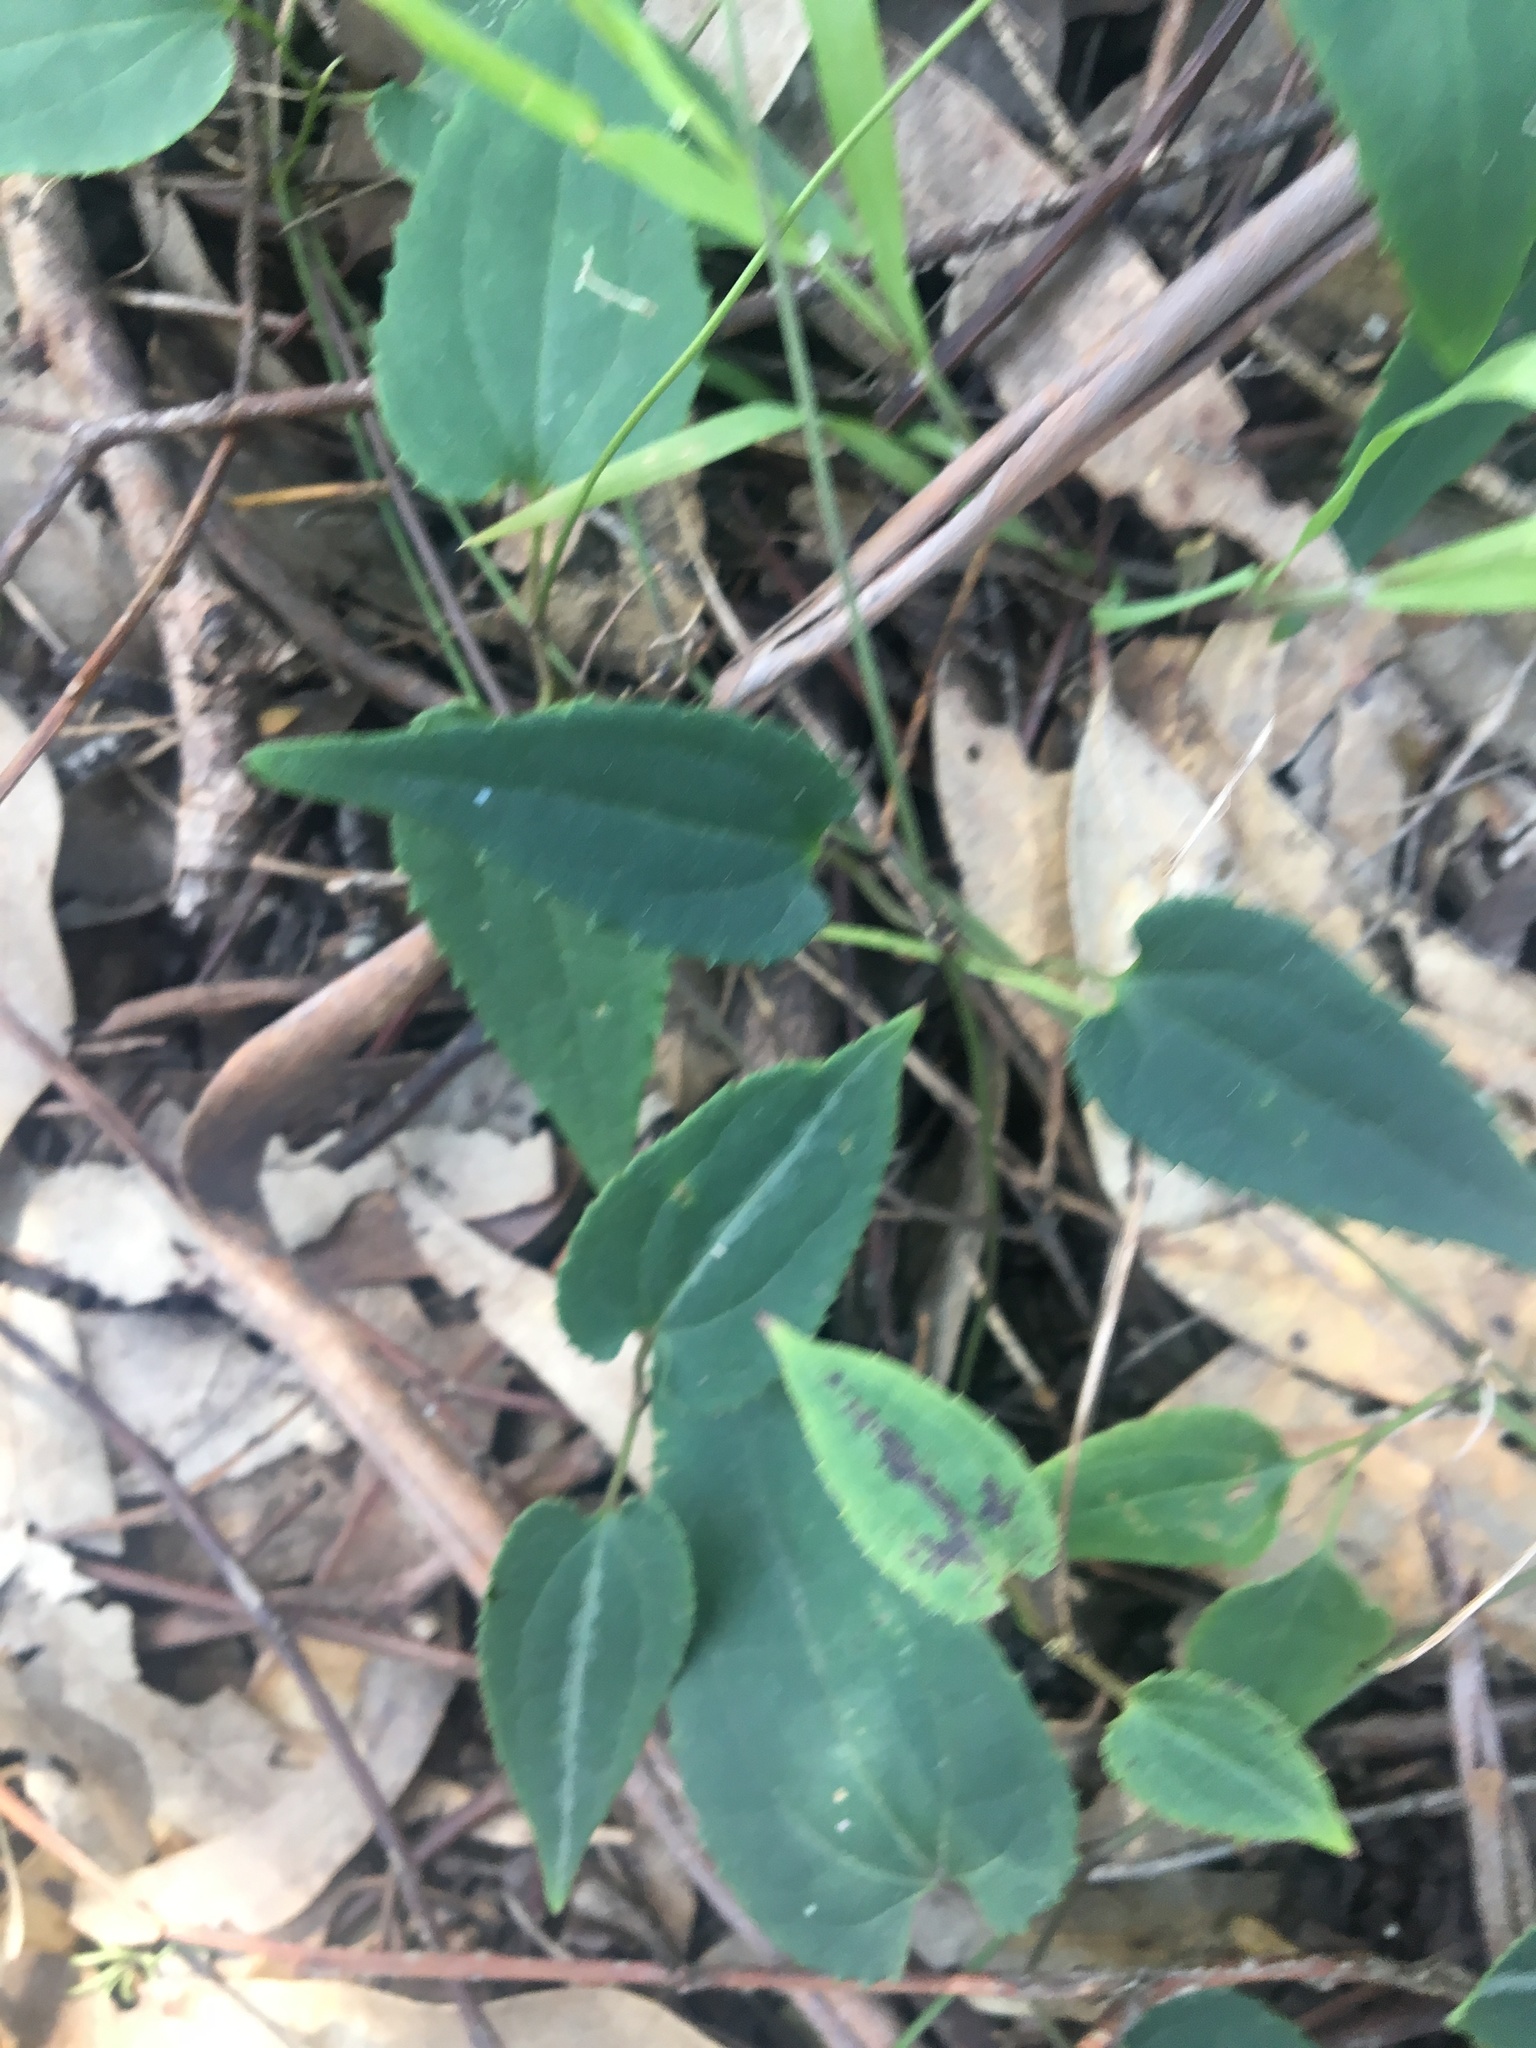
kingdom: Plantae
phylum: Tracheophyta
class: Magnoliopsida
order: Ranunculales
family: Ranunculaceae
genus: Clematis
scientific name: Clematis aristata
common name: Mountain clematis
